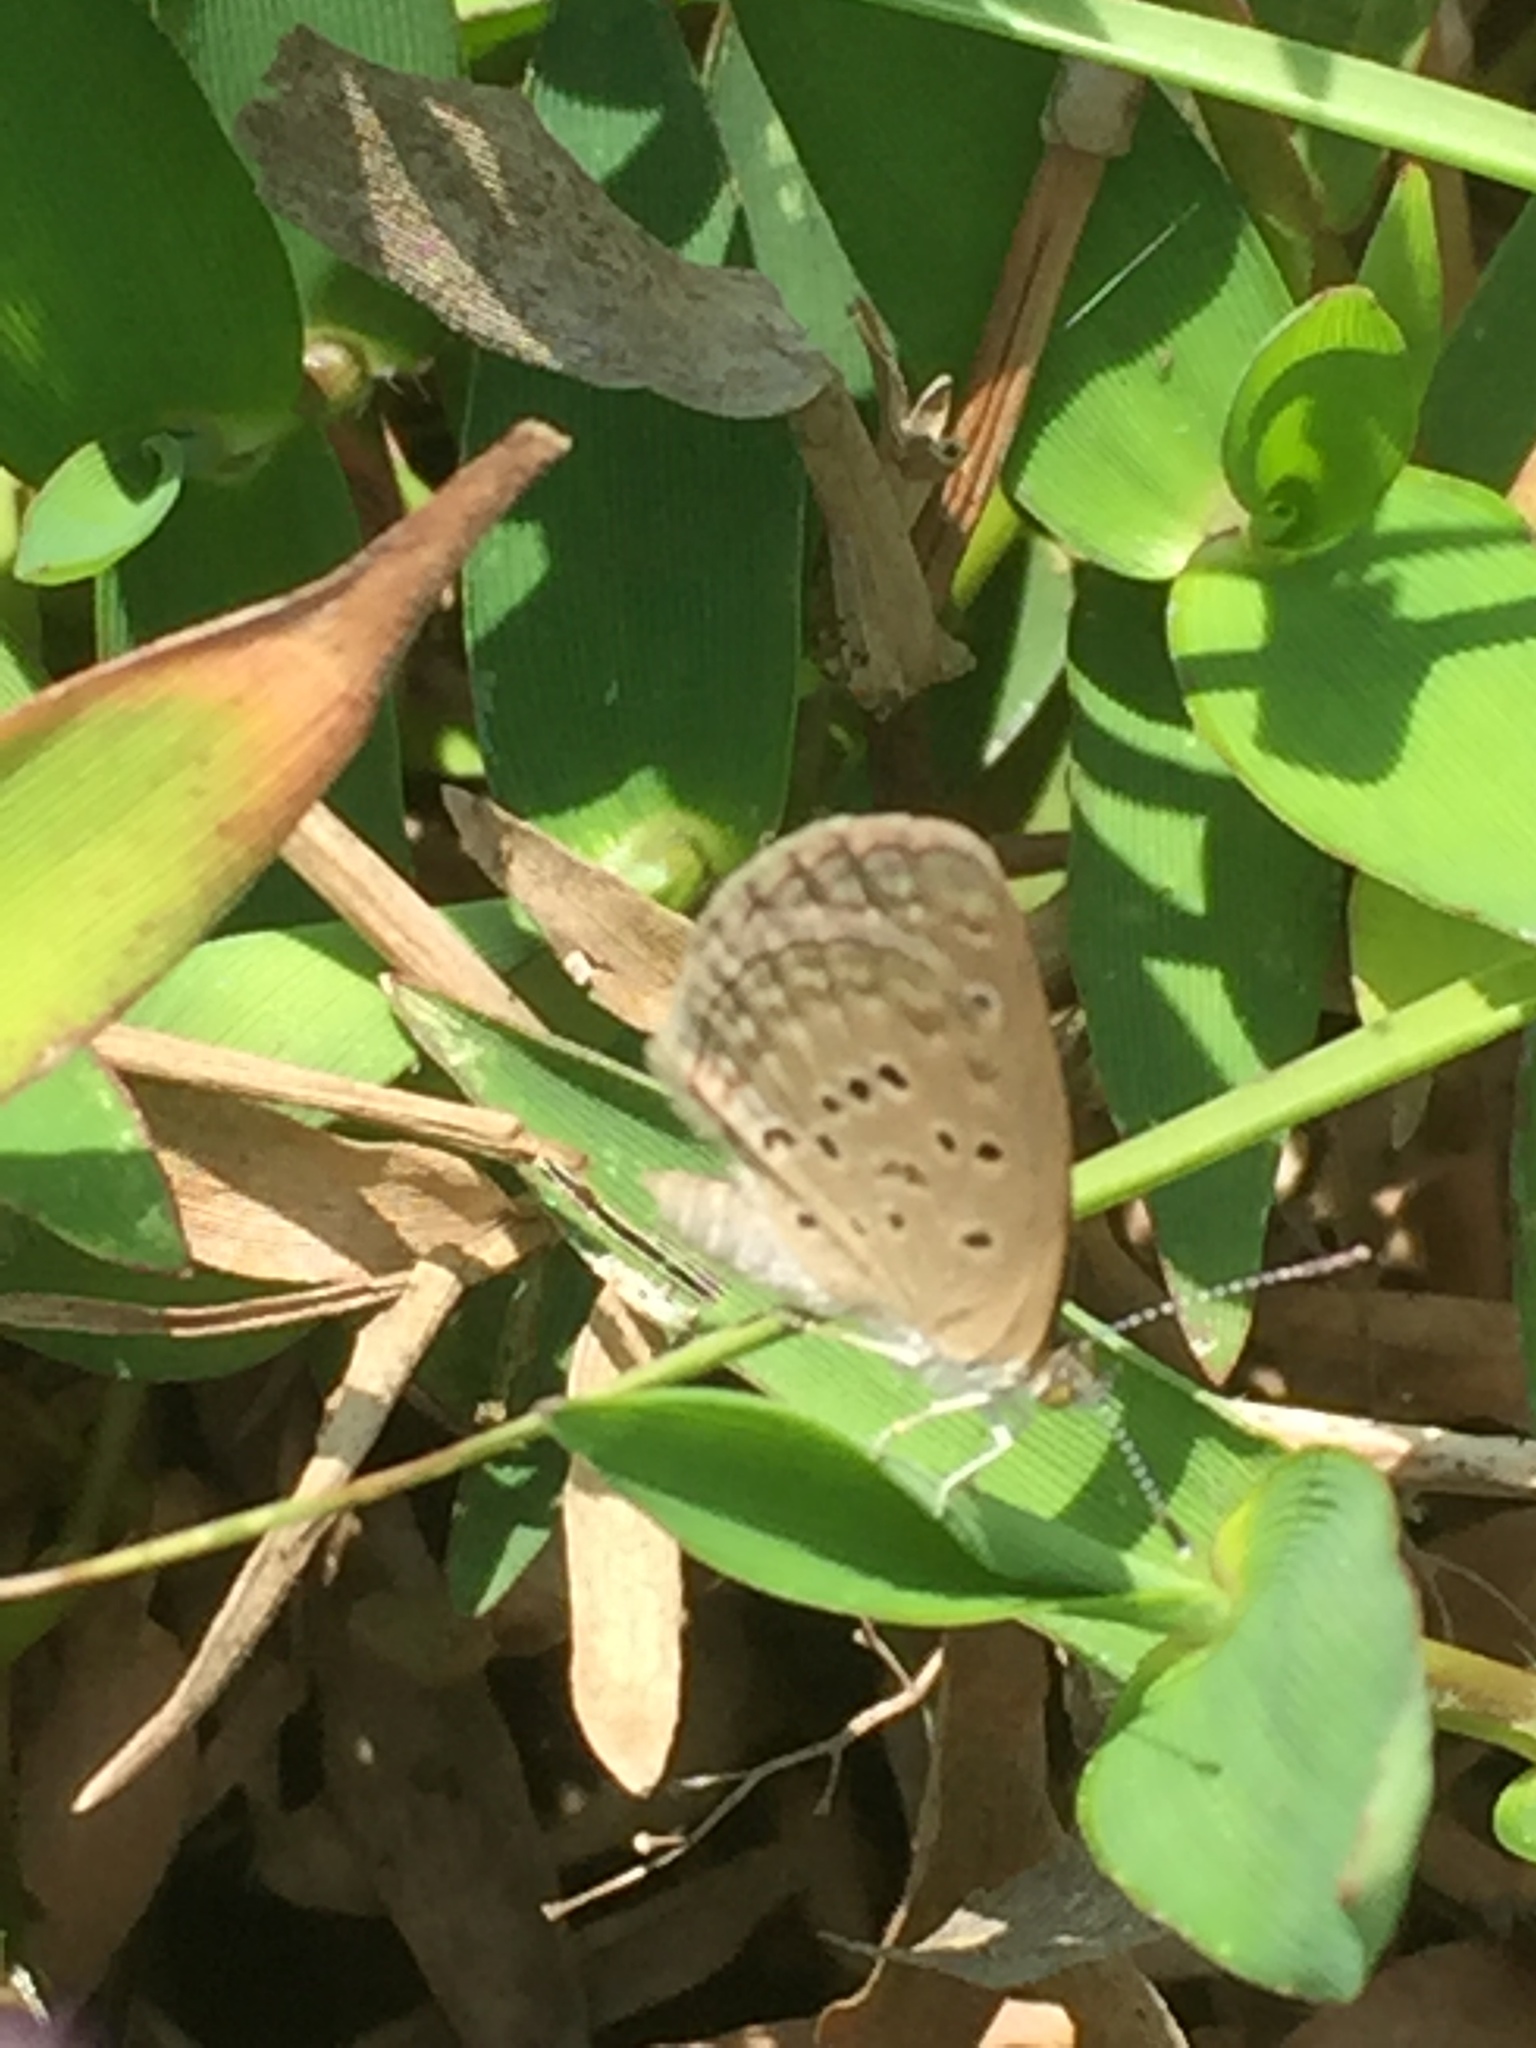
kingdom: Animalia
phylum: Arthropoda
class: Insecta
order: Lepidoptera
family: Lycaenidae
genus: Zizina
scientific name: Zizina otis
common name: Lesser grass blue
